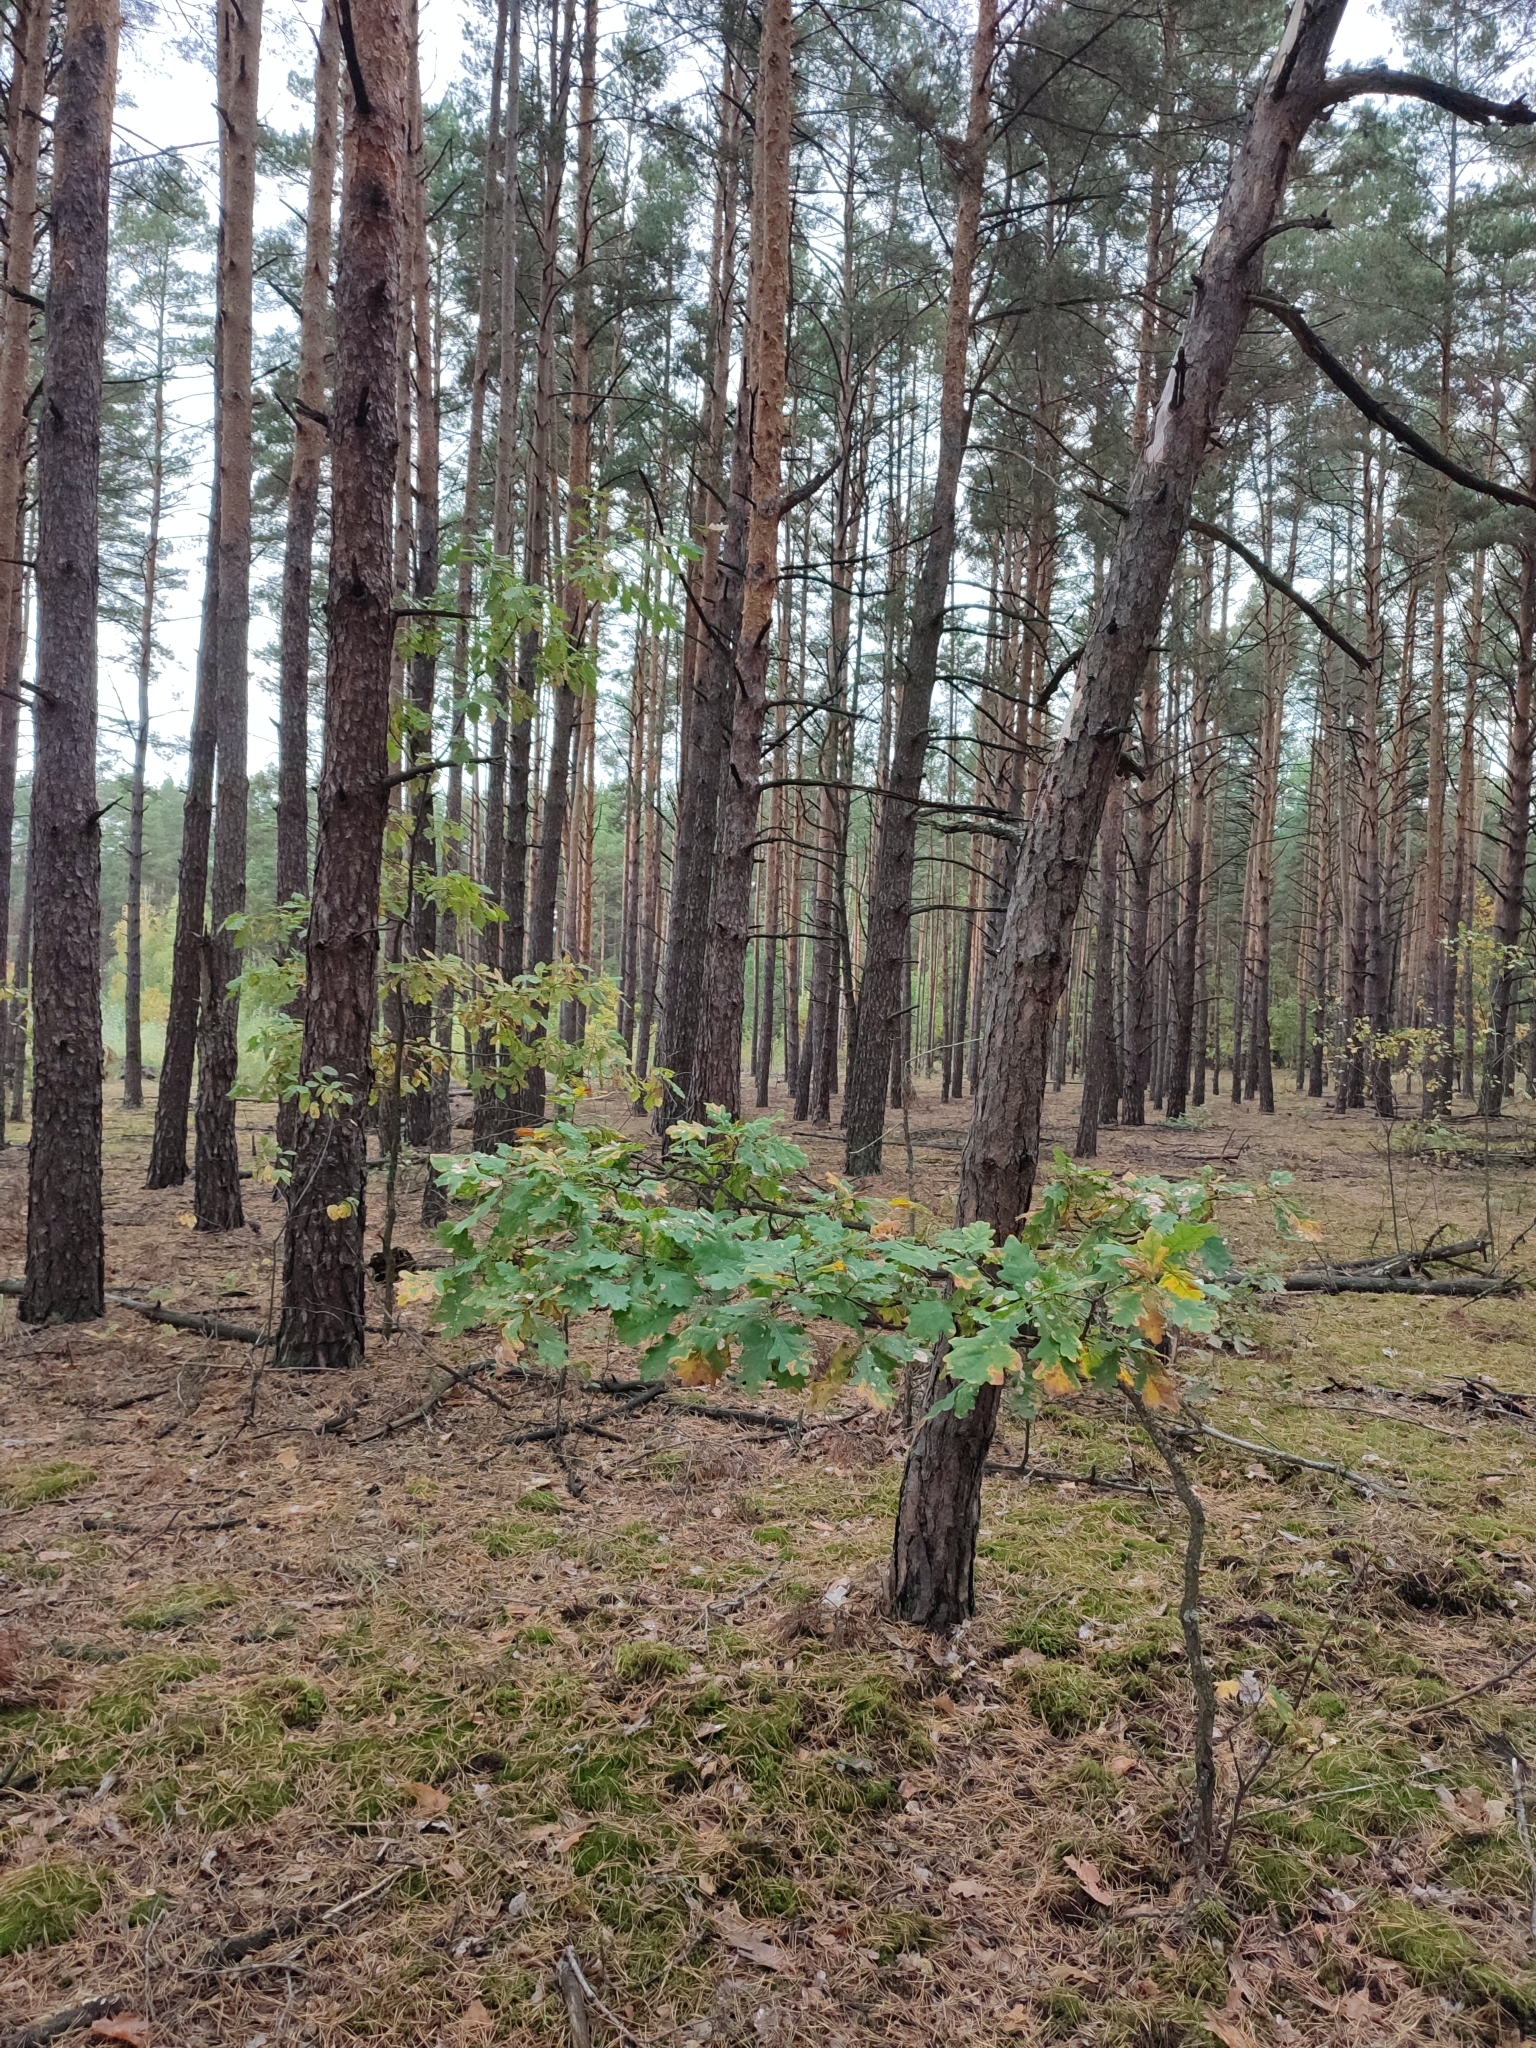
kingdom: Plantae
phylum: Tracheophyta
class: Magnoliopsida
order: Fagales
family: Fagaceae
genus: Quercus
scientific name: Quercus robur
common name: Pedunculate oak
